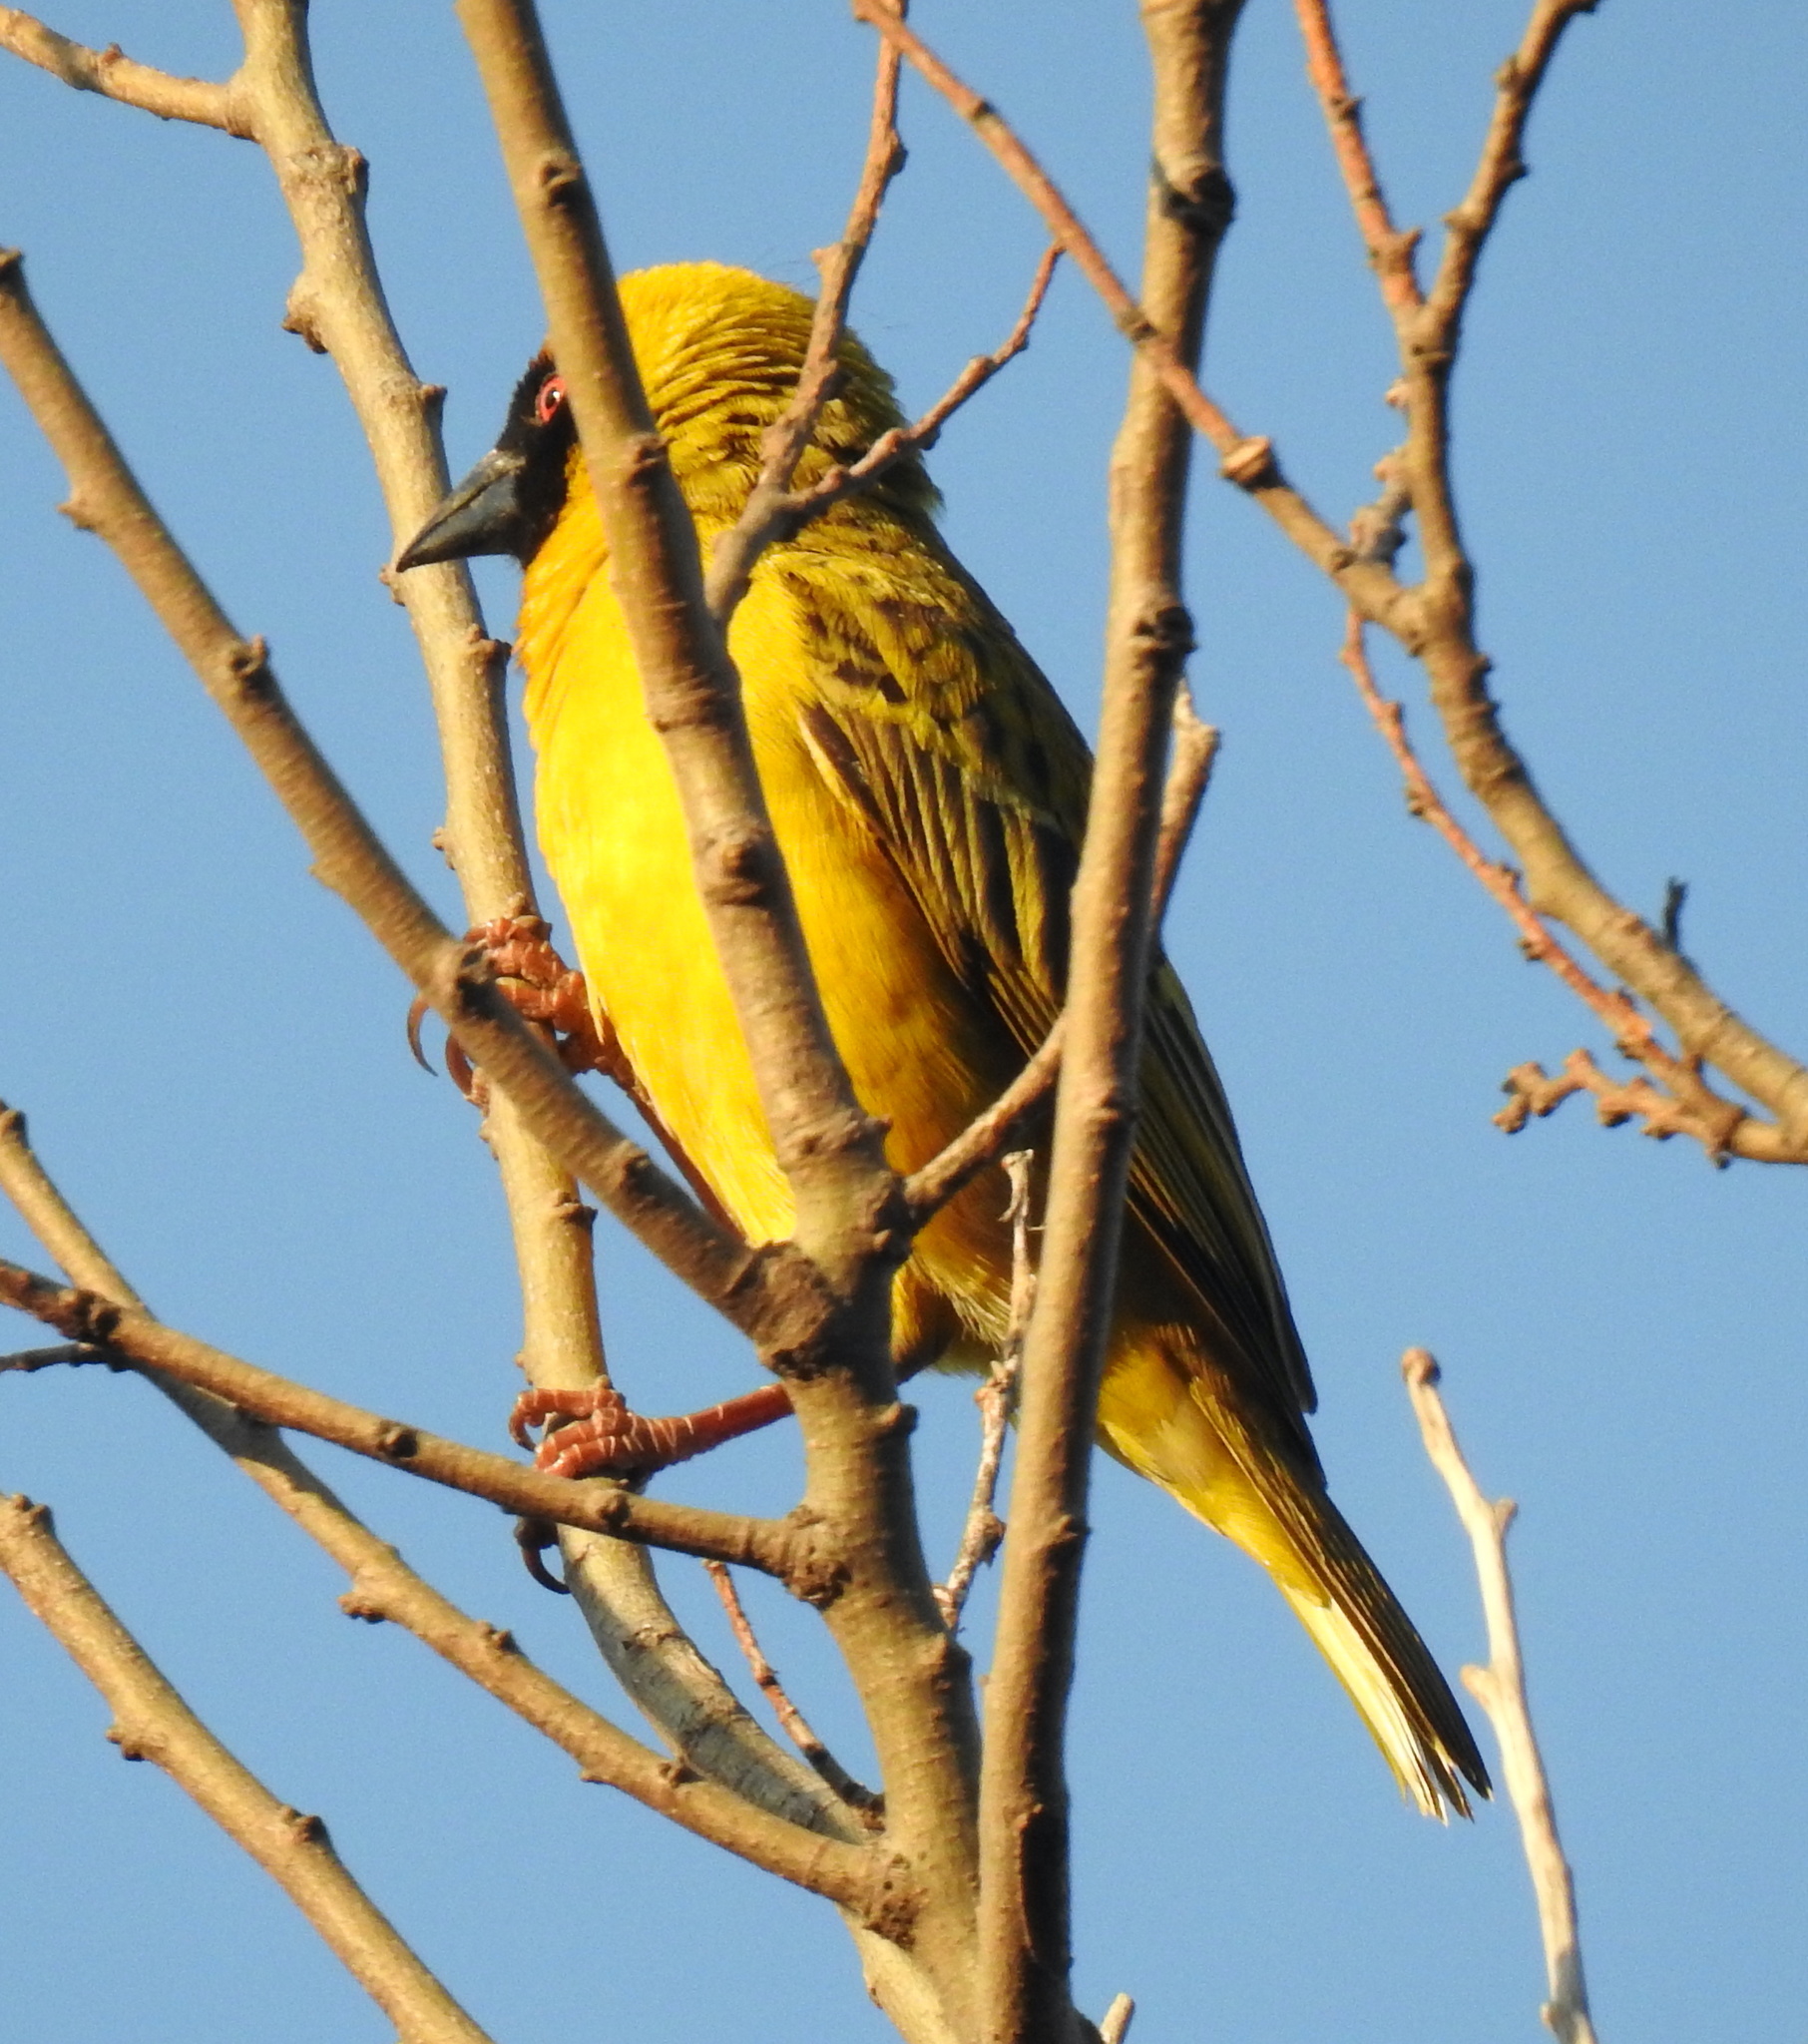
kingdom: Animalia
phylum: Chordata
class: Aves
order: Passeriformes
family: Ploceidae
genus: Ploceus
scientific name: Ploceus velatus
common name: Southern masked weaver
